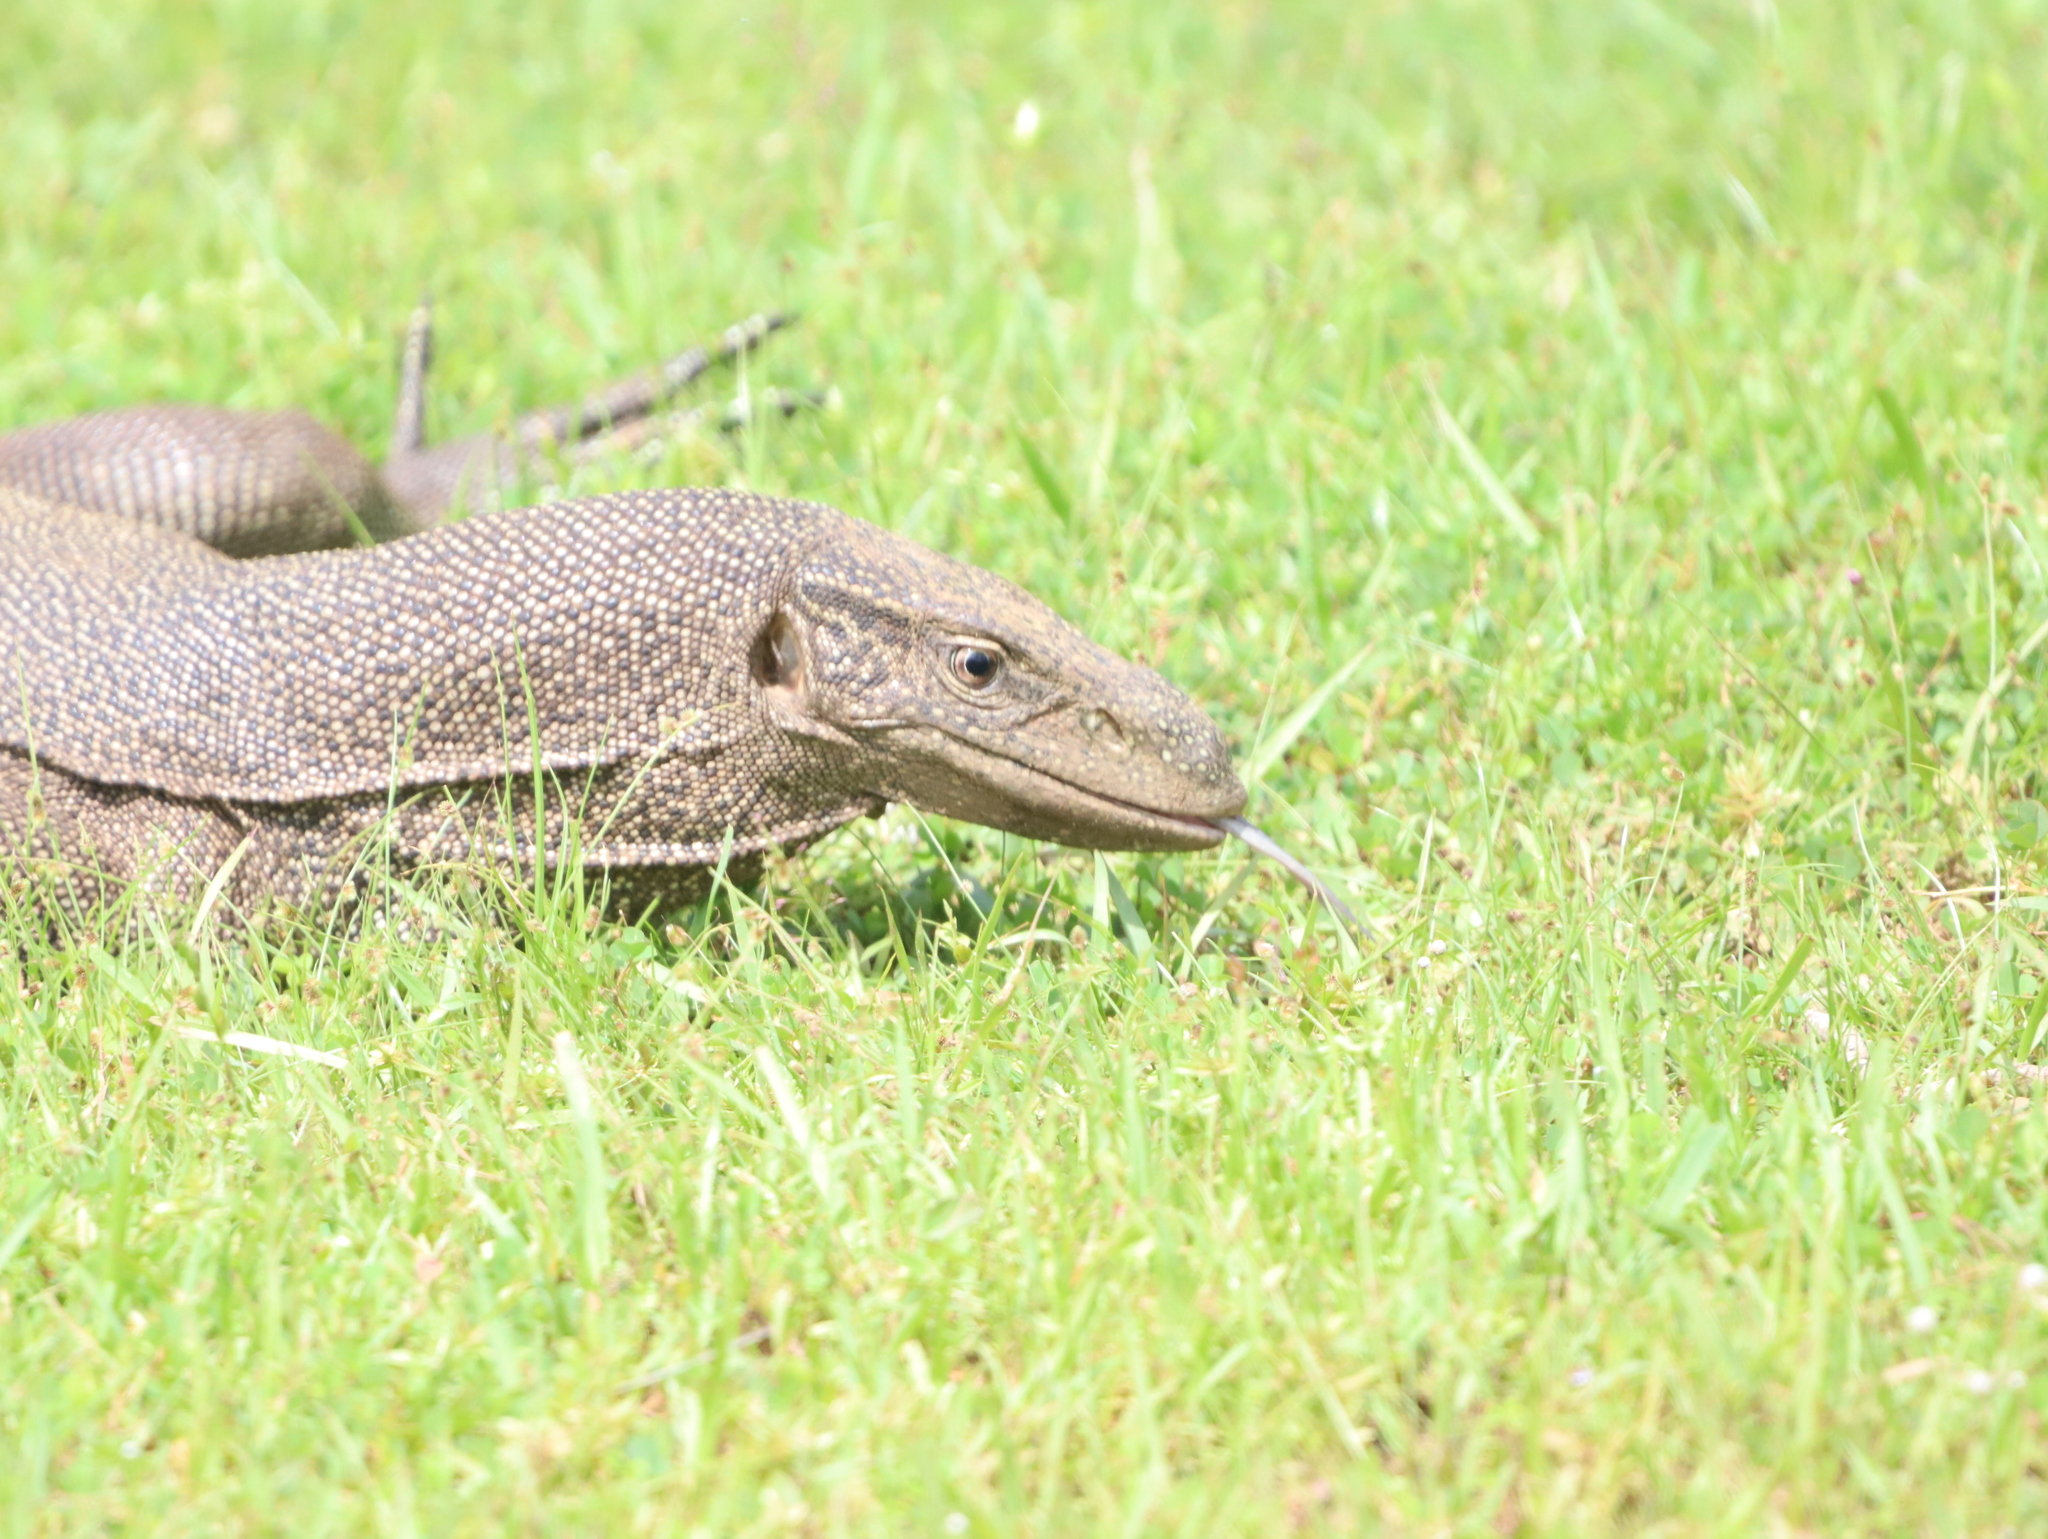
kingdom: Animalia
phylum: Chordata
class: Squamata
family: Varanidae
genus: Varanus
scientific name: Varanus bengalensis
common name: Bengal monitor
